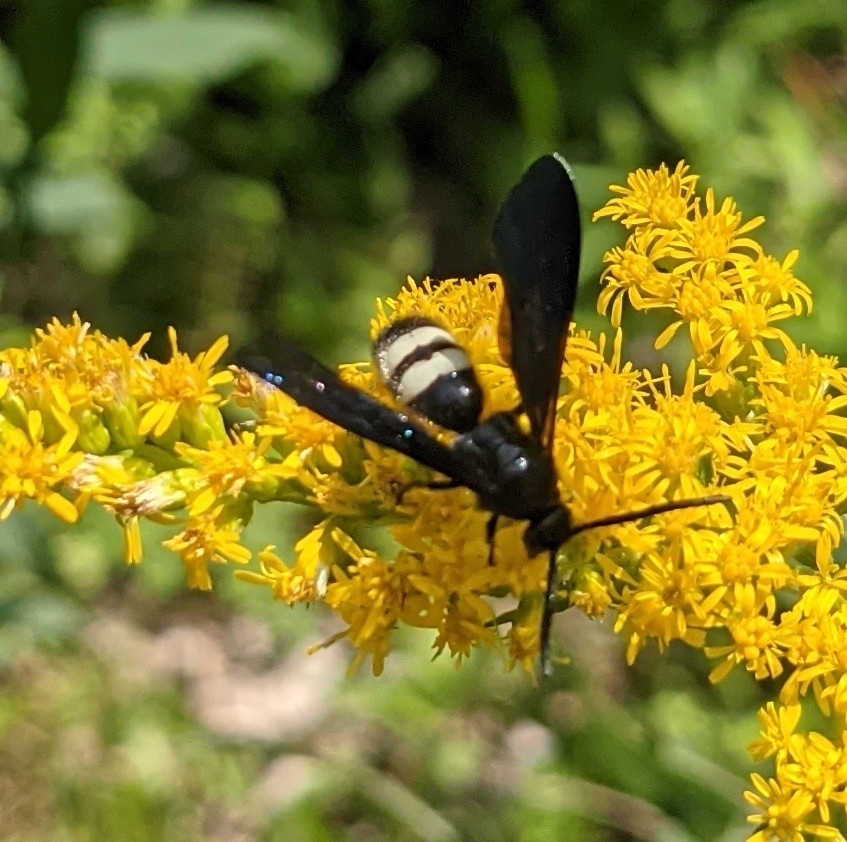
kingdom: Animalia
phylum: Arthropoda
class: Insecta
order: Hymenoptera
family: Scoliidae
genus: Scolia
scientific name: Scolia bicincta
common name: Double-banded scoliid wasp
